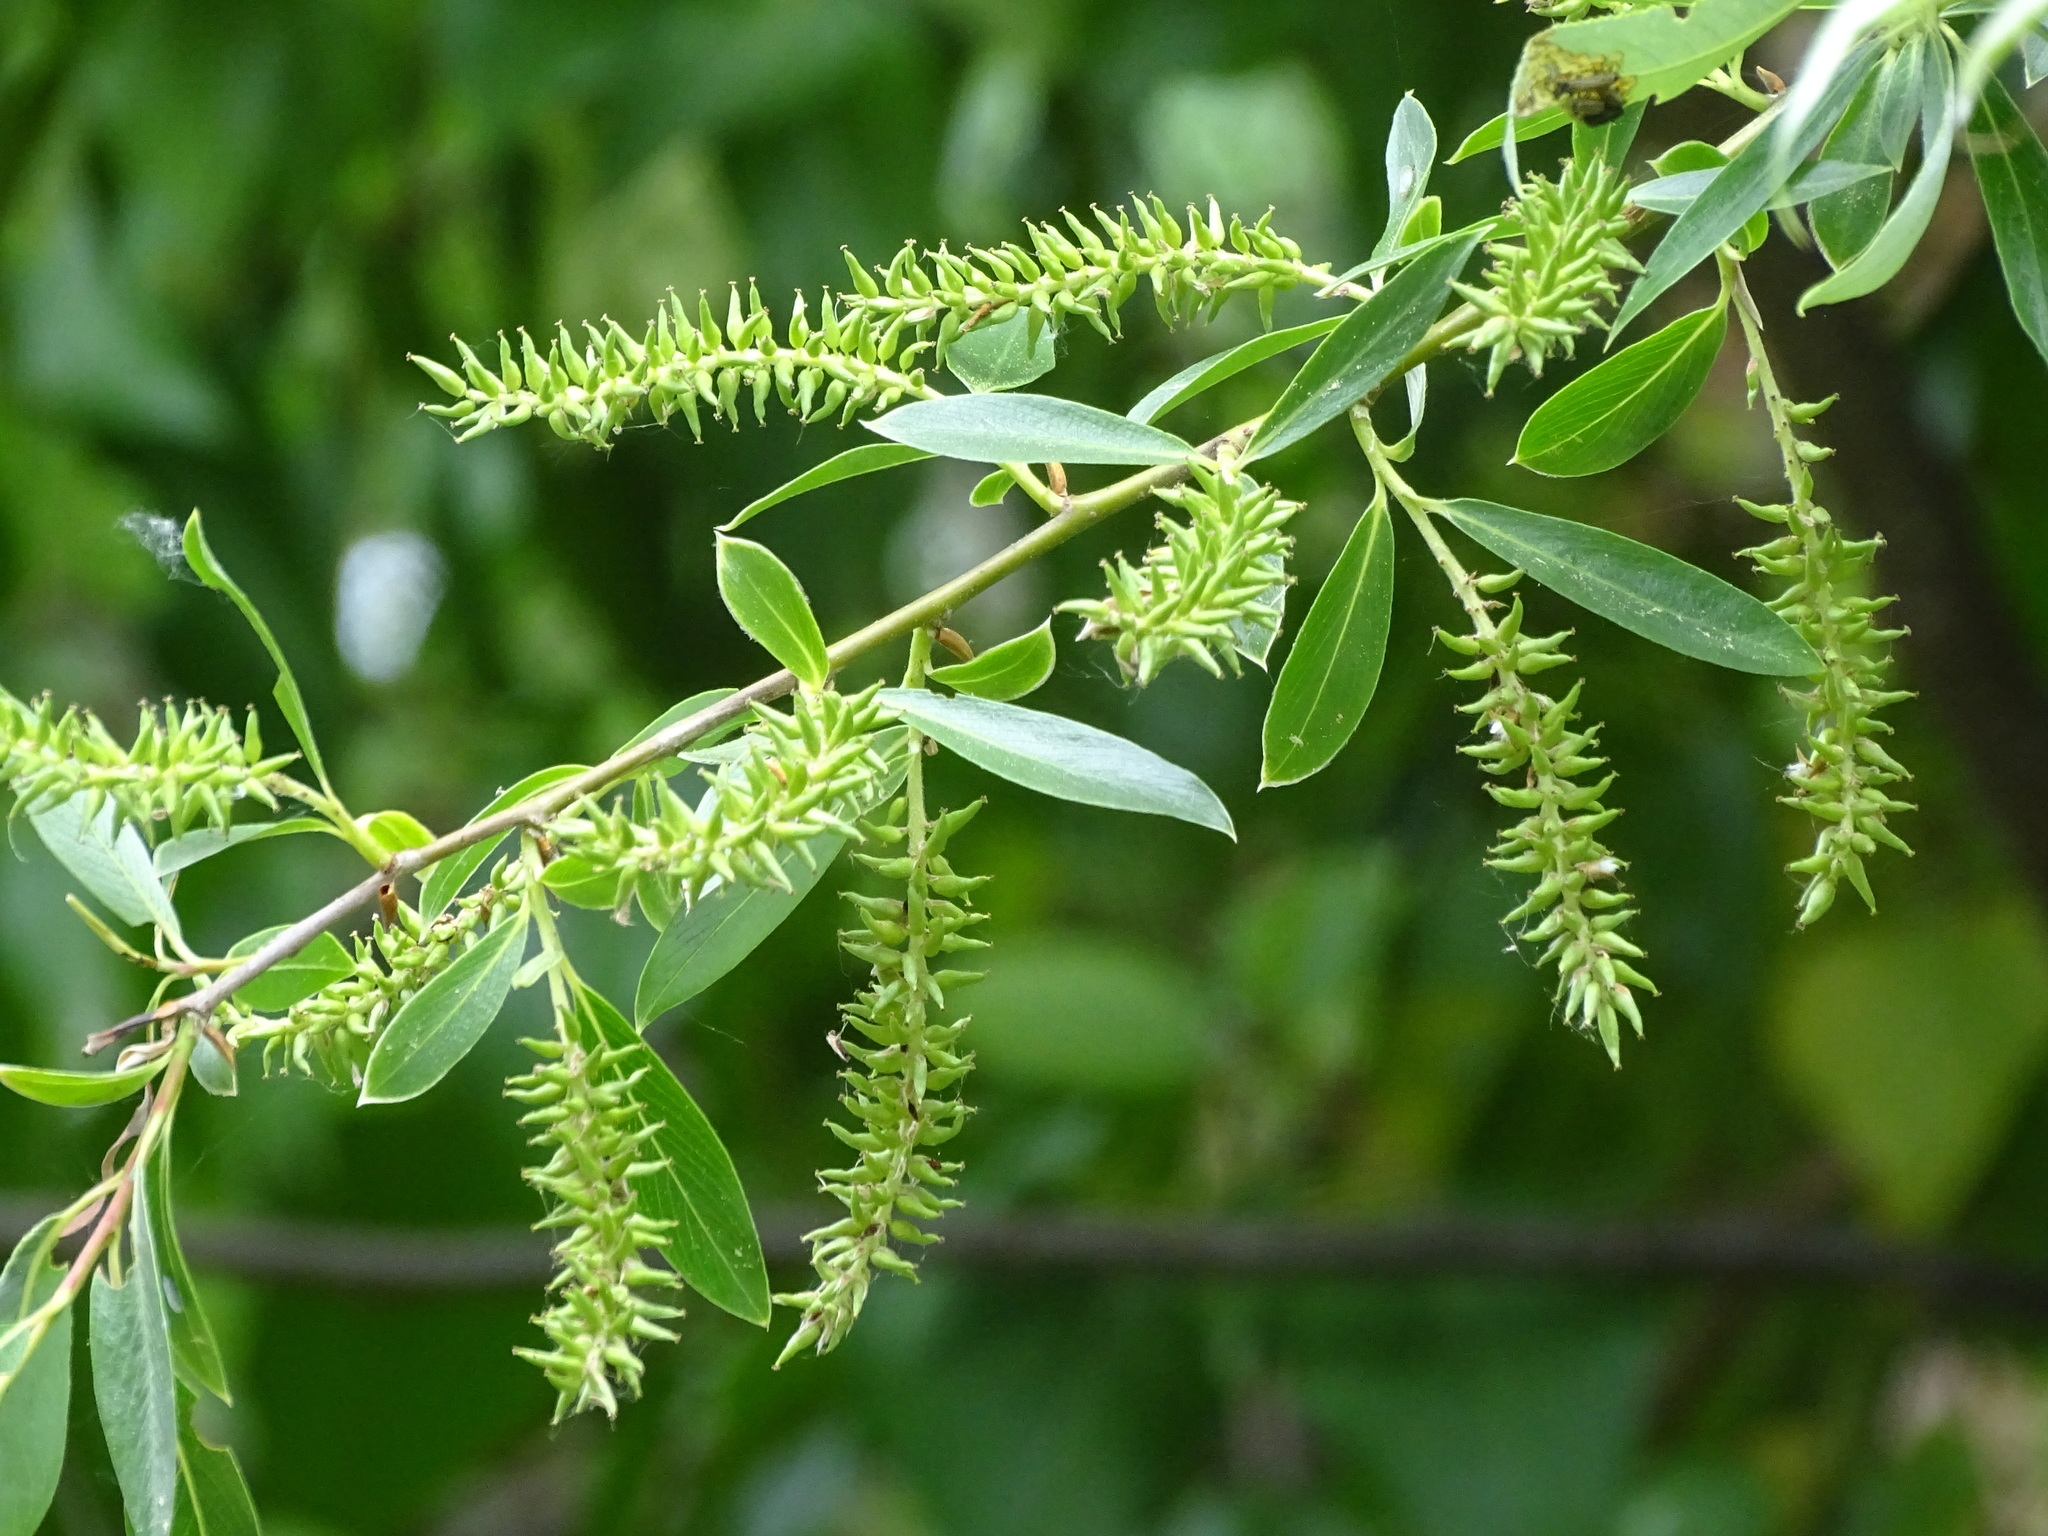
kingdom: Plantae
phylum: Tracheophyta
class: Magnoliopsida
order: Malpighiales
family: Salicaceae
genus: Salix
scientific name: Salix fragilis
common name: Crack willow
